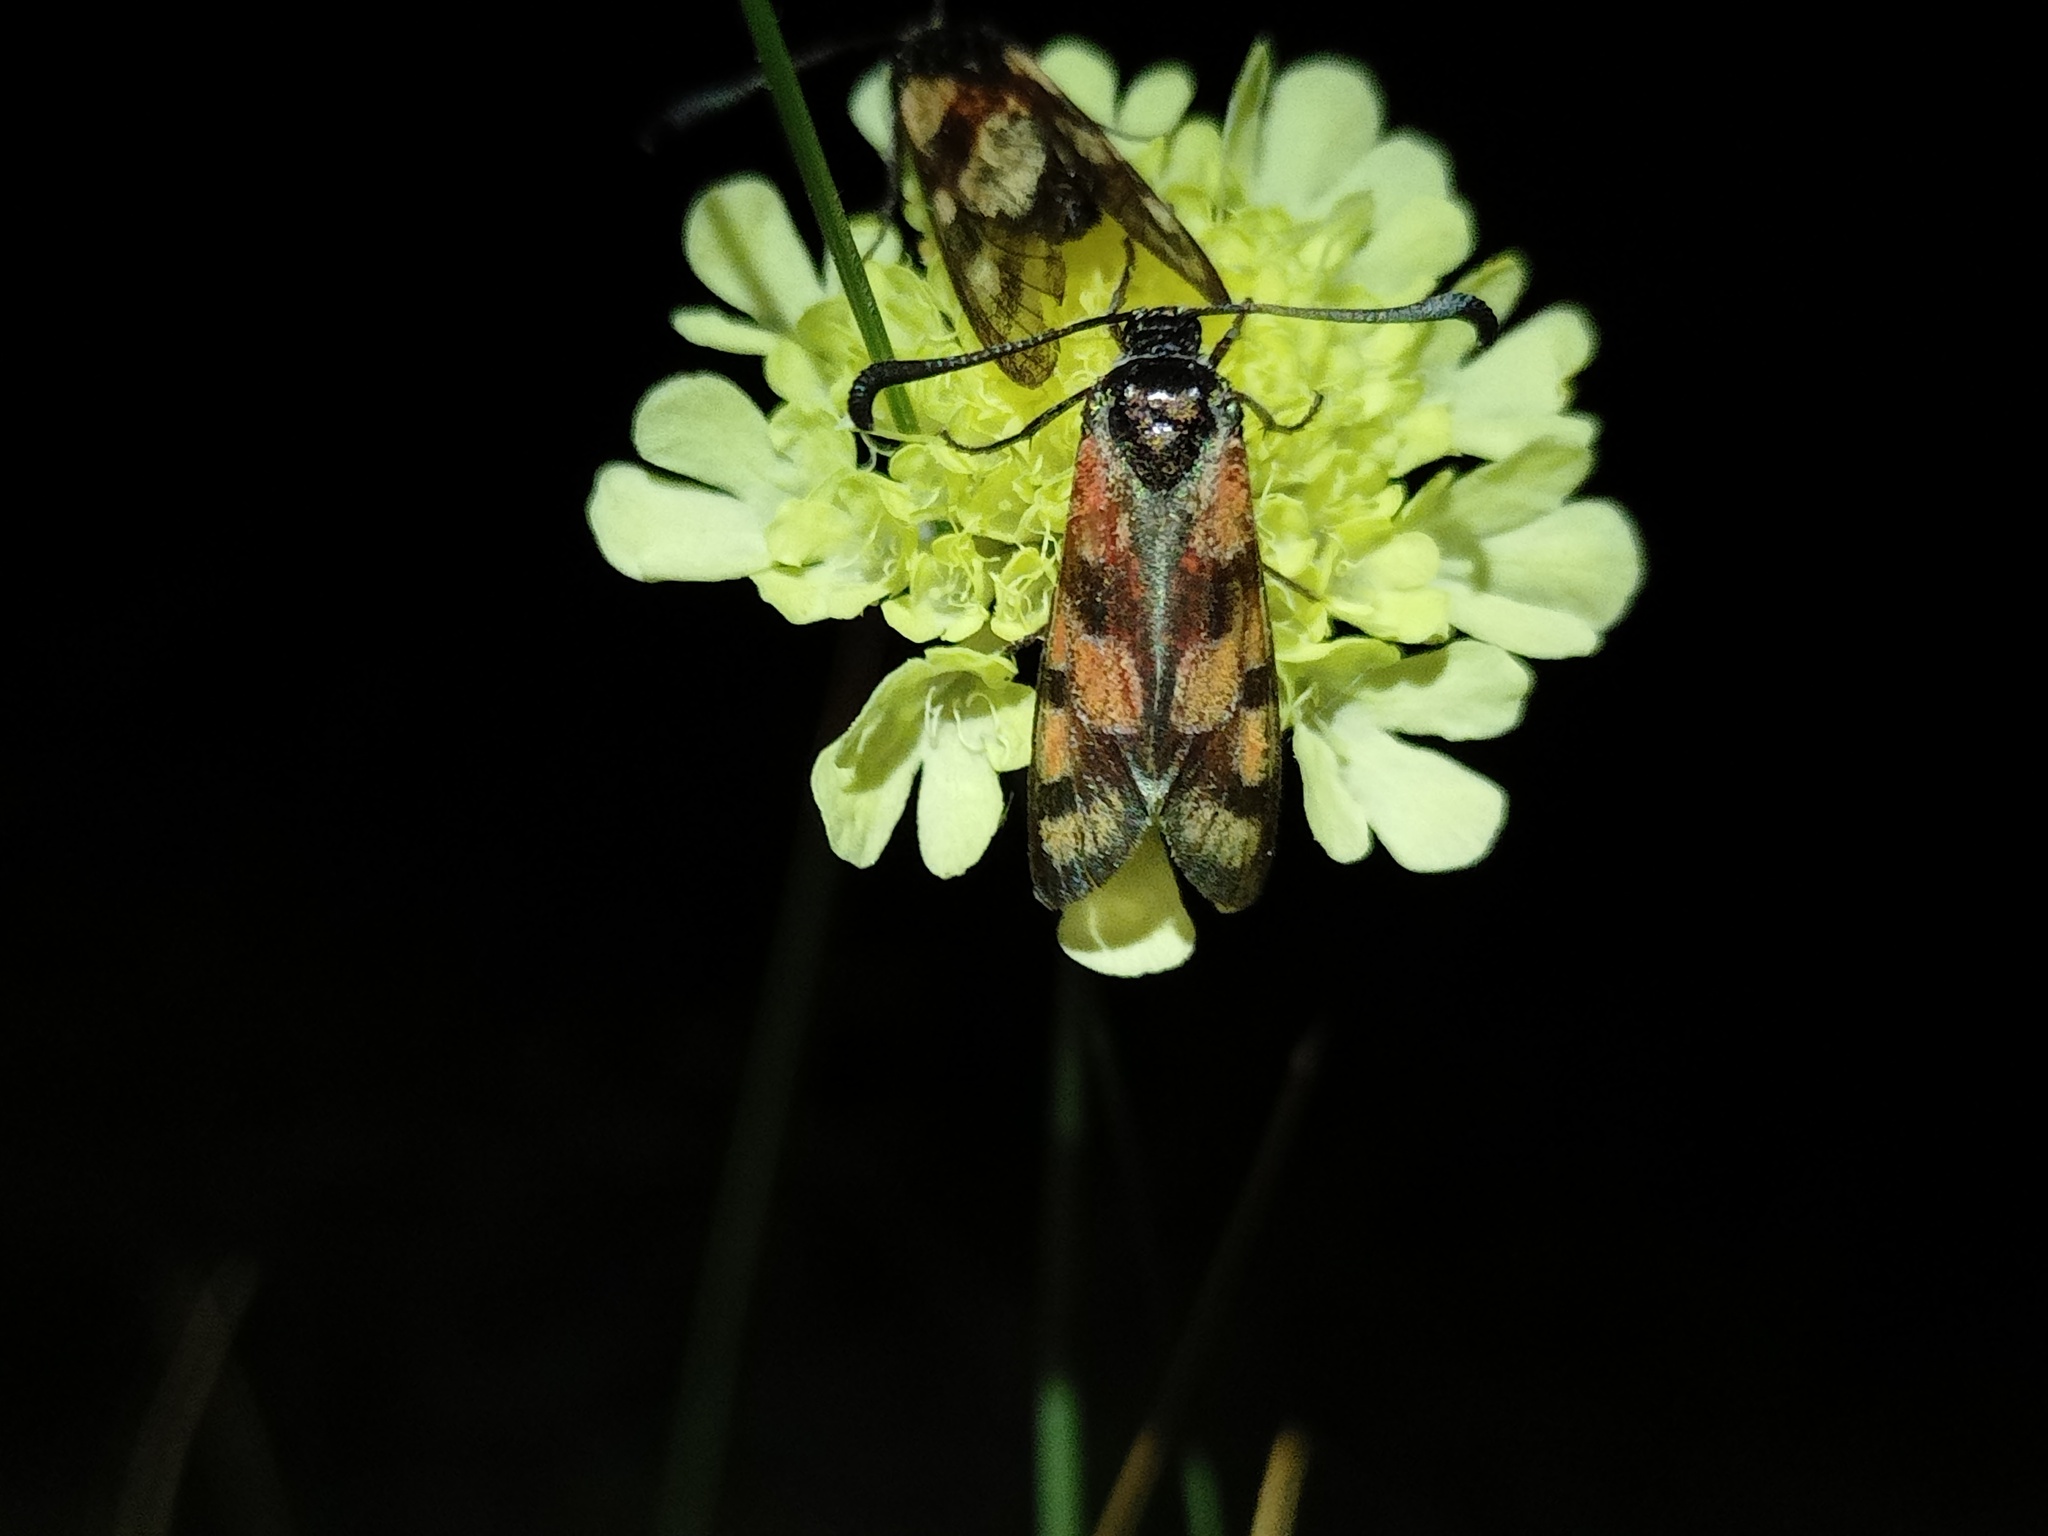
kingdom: Animalia
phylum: Arthropoda
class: Insecta
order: Lepidoptera
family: Zygaenidae
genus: Zygaena
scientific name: Zygaena carniolica
